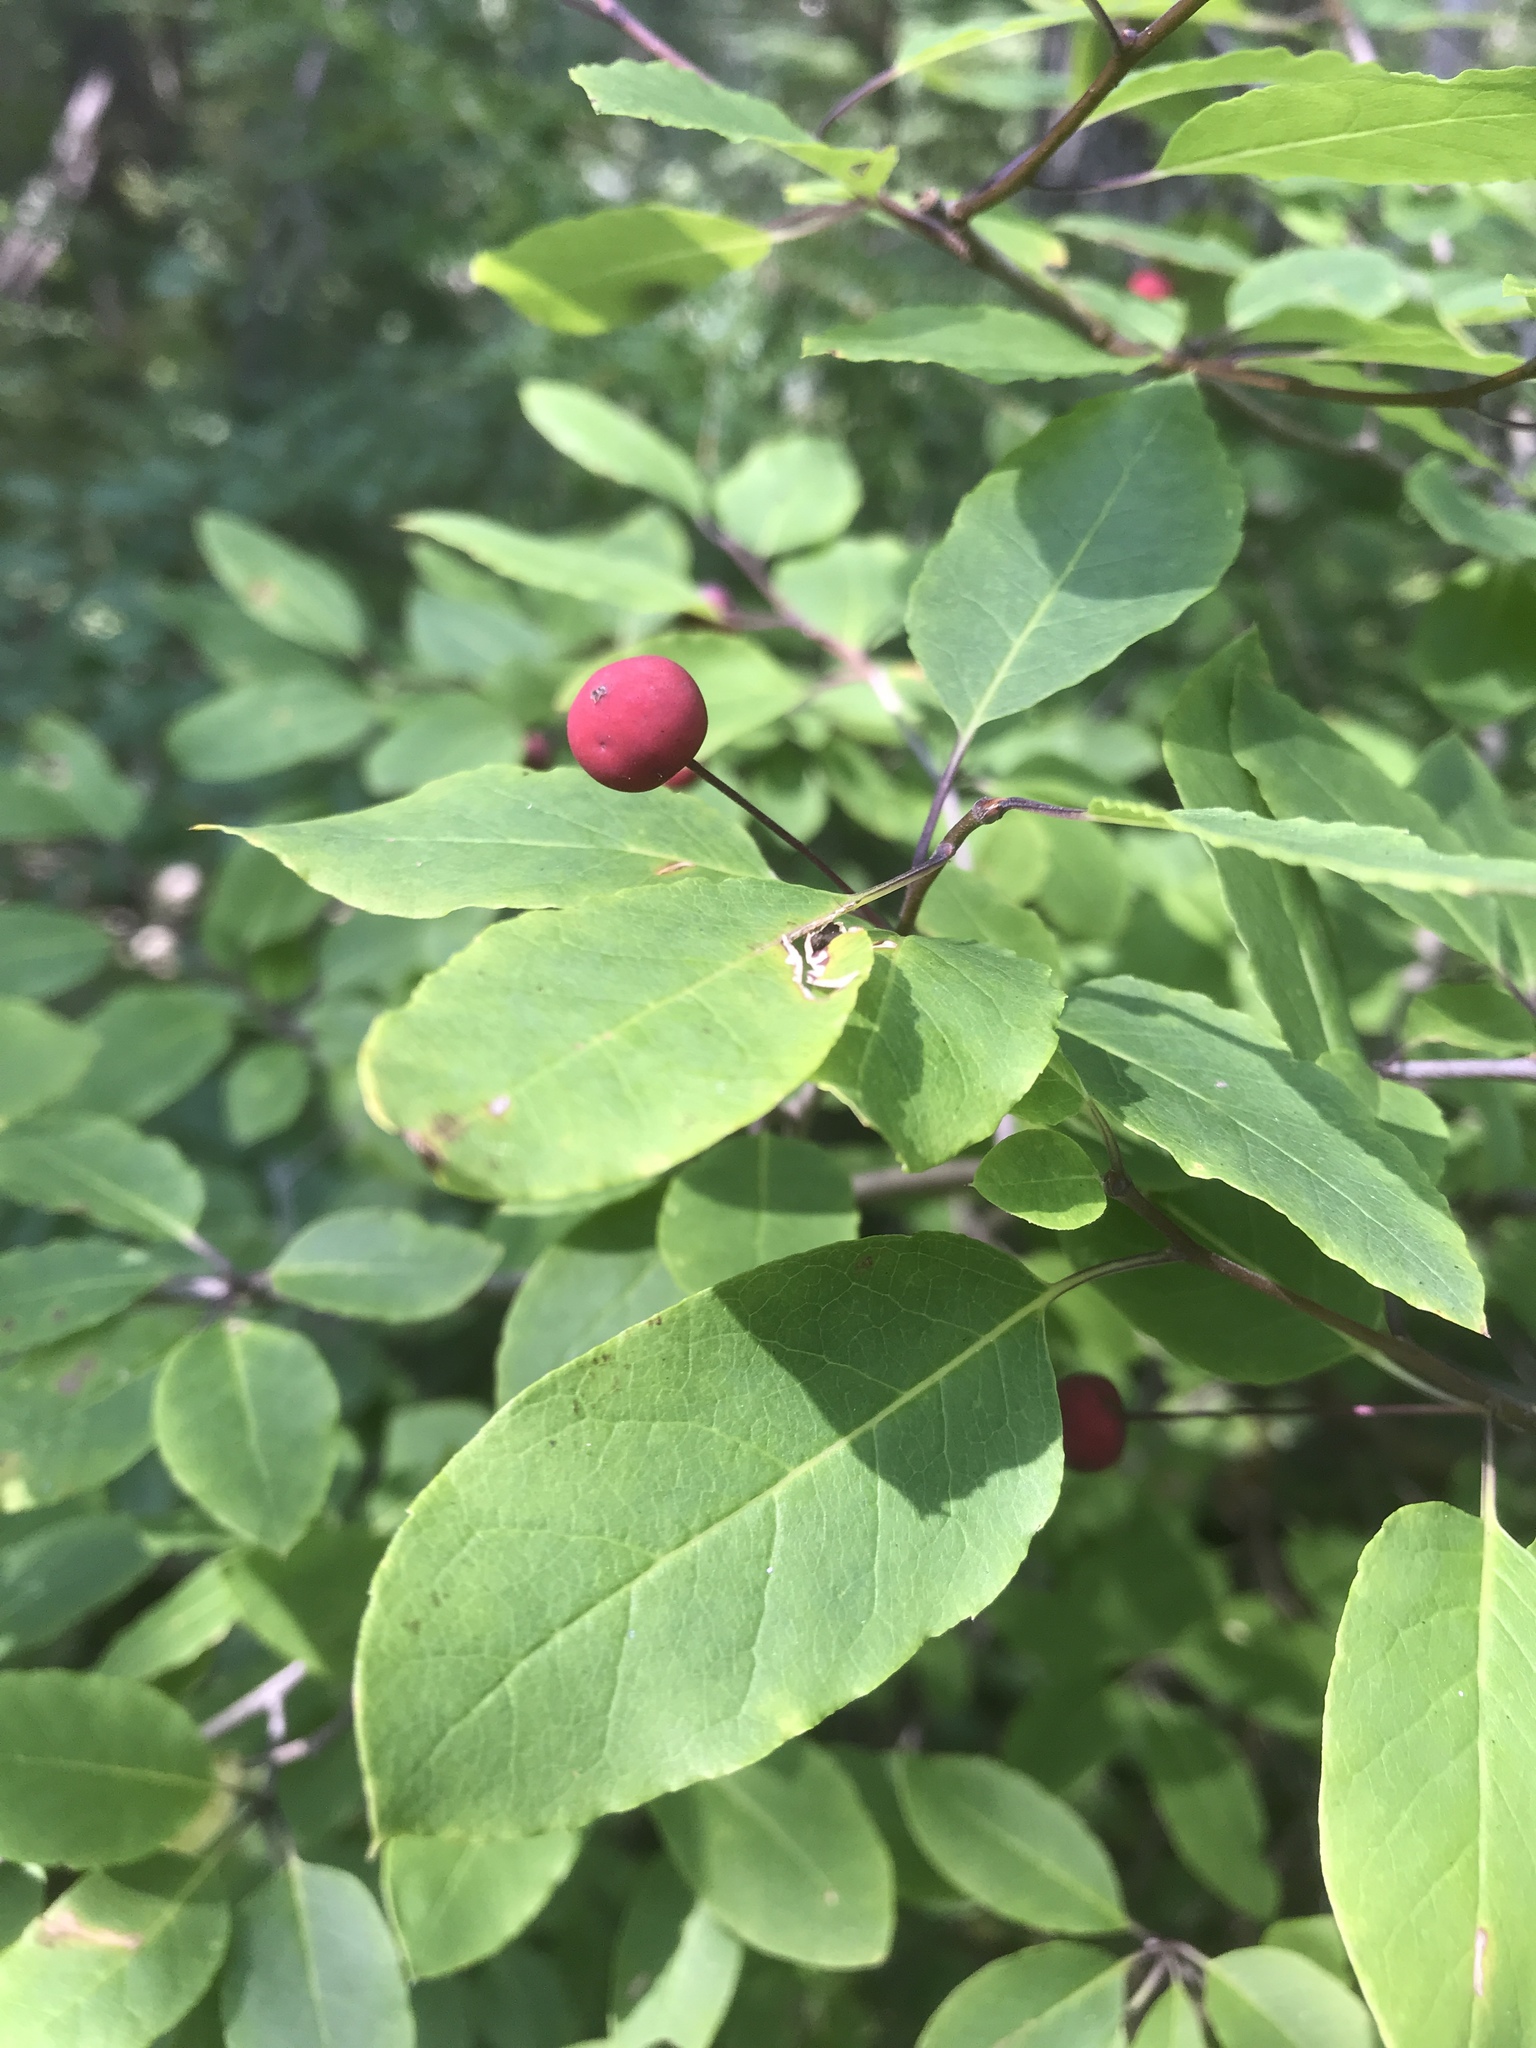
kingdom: Plantae
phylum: Tracheophyta
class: Magnoliopsida
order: Aquifoliales
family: Aquifoliaceae
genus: Ilex
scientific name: Ilex mucronata
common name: Catberry
